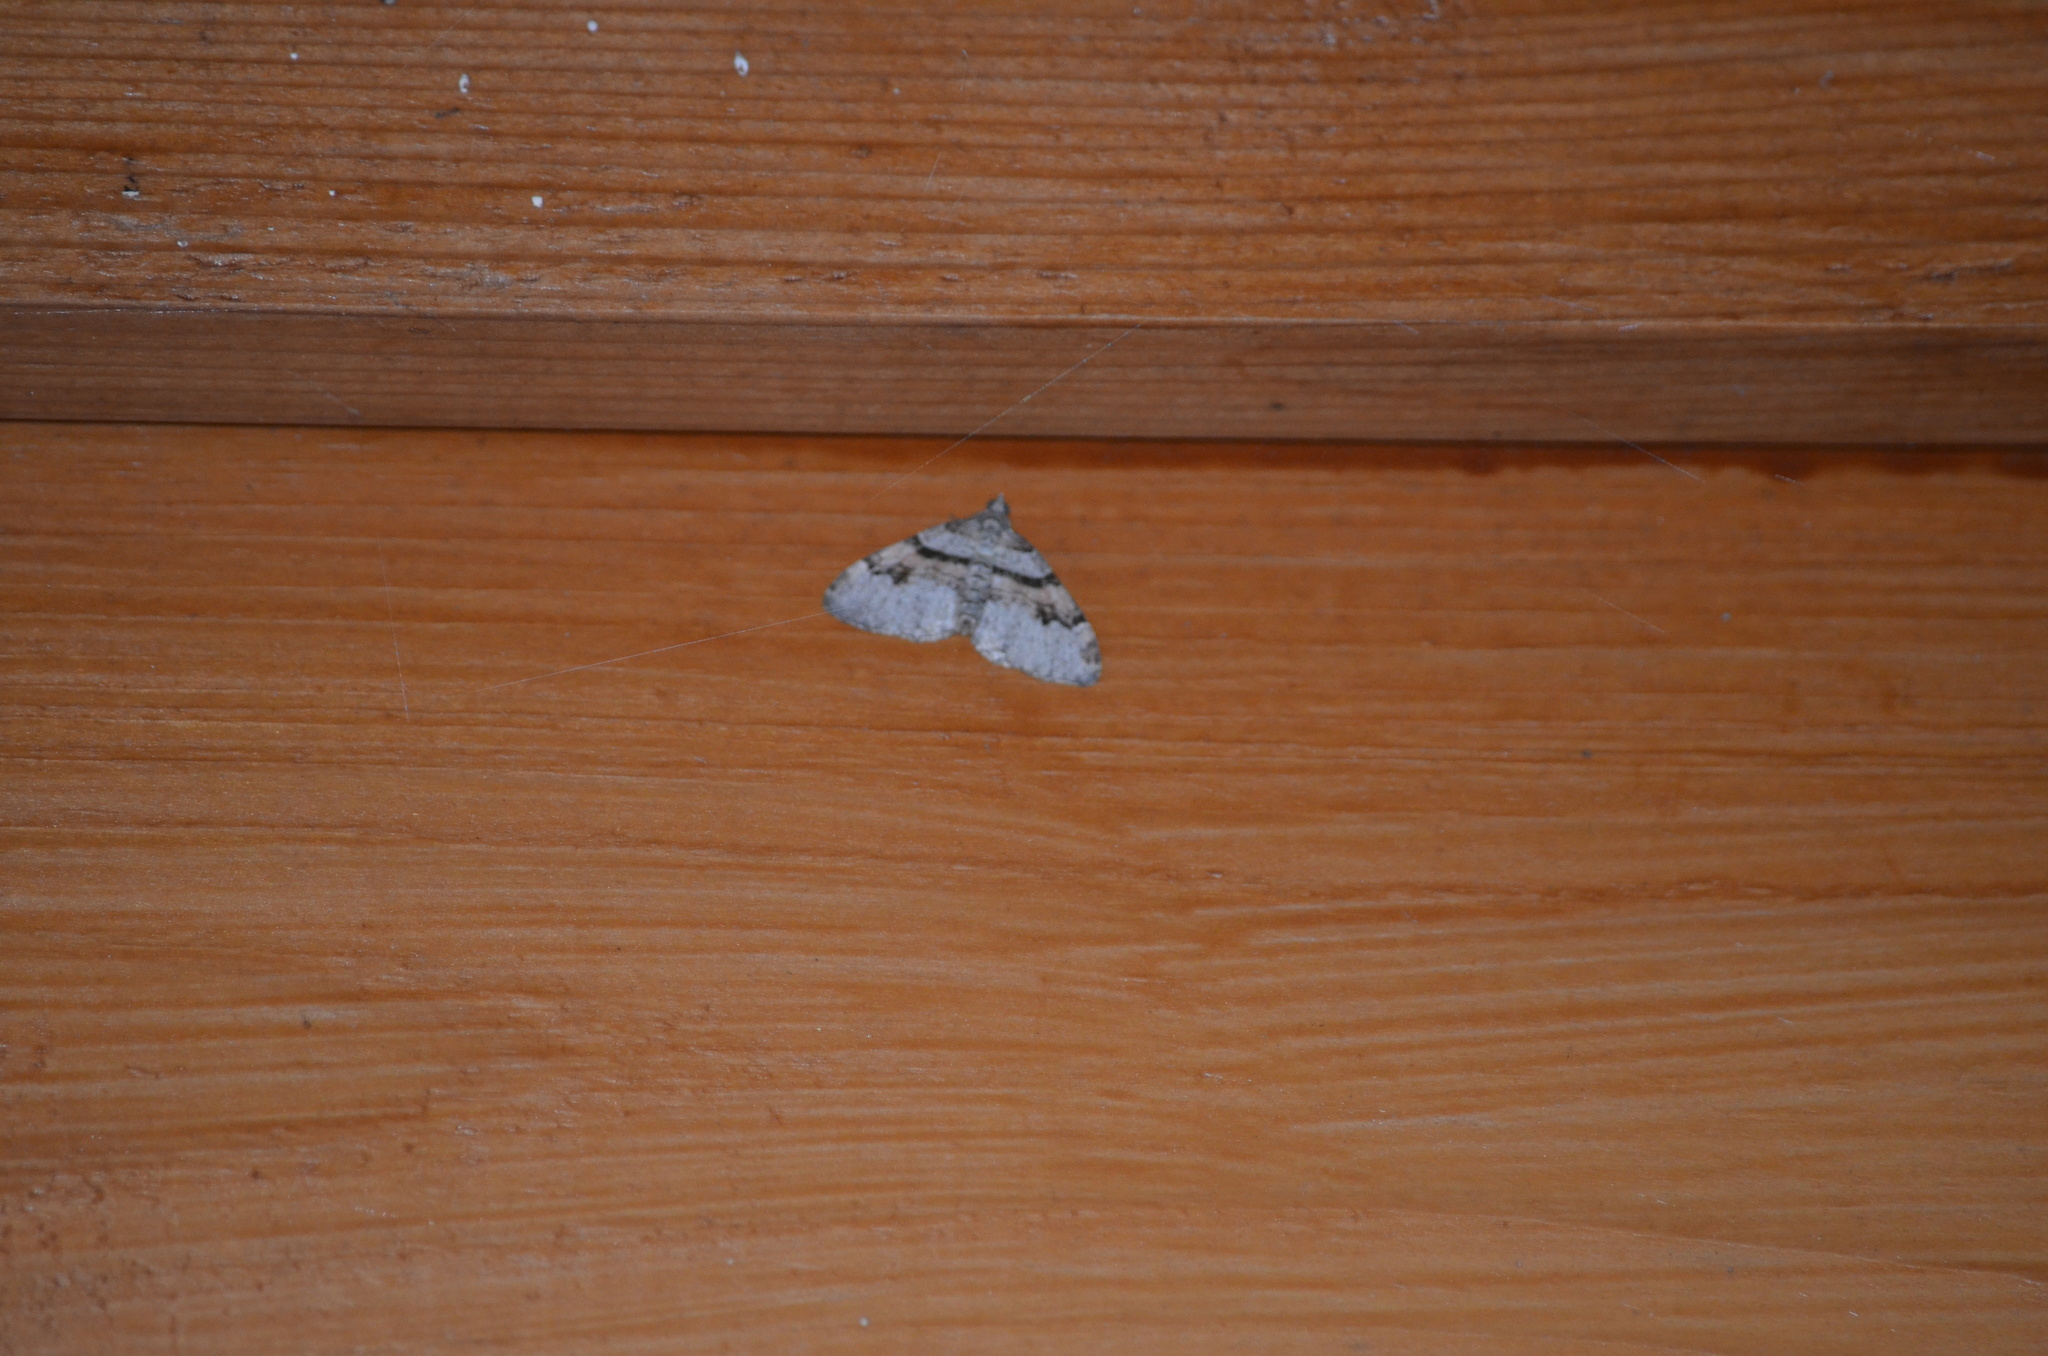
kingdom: Animalia
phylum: Arthropoda
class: Insecta
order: Lepidoptera
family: Geometridae
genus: Xanthorhoe
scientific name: Xanthorhoe labradorensis
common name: Labrador carpet
